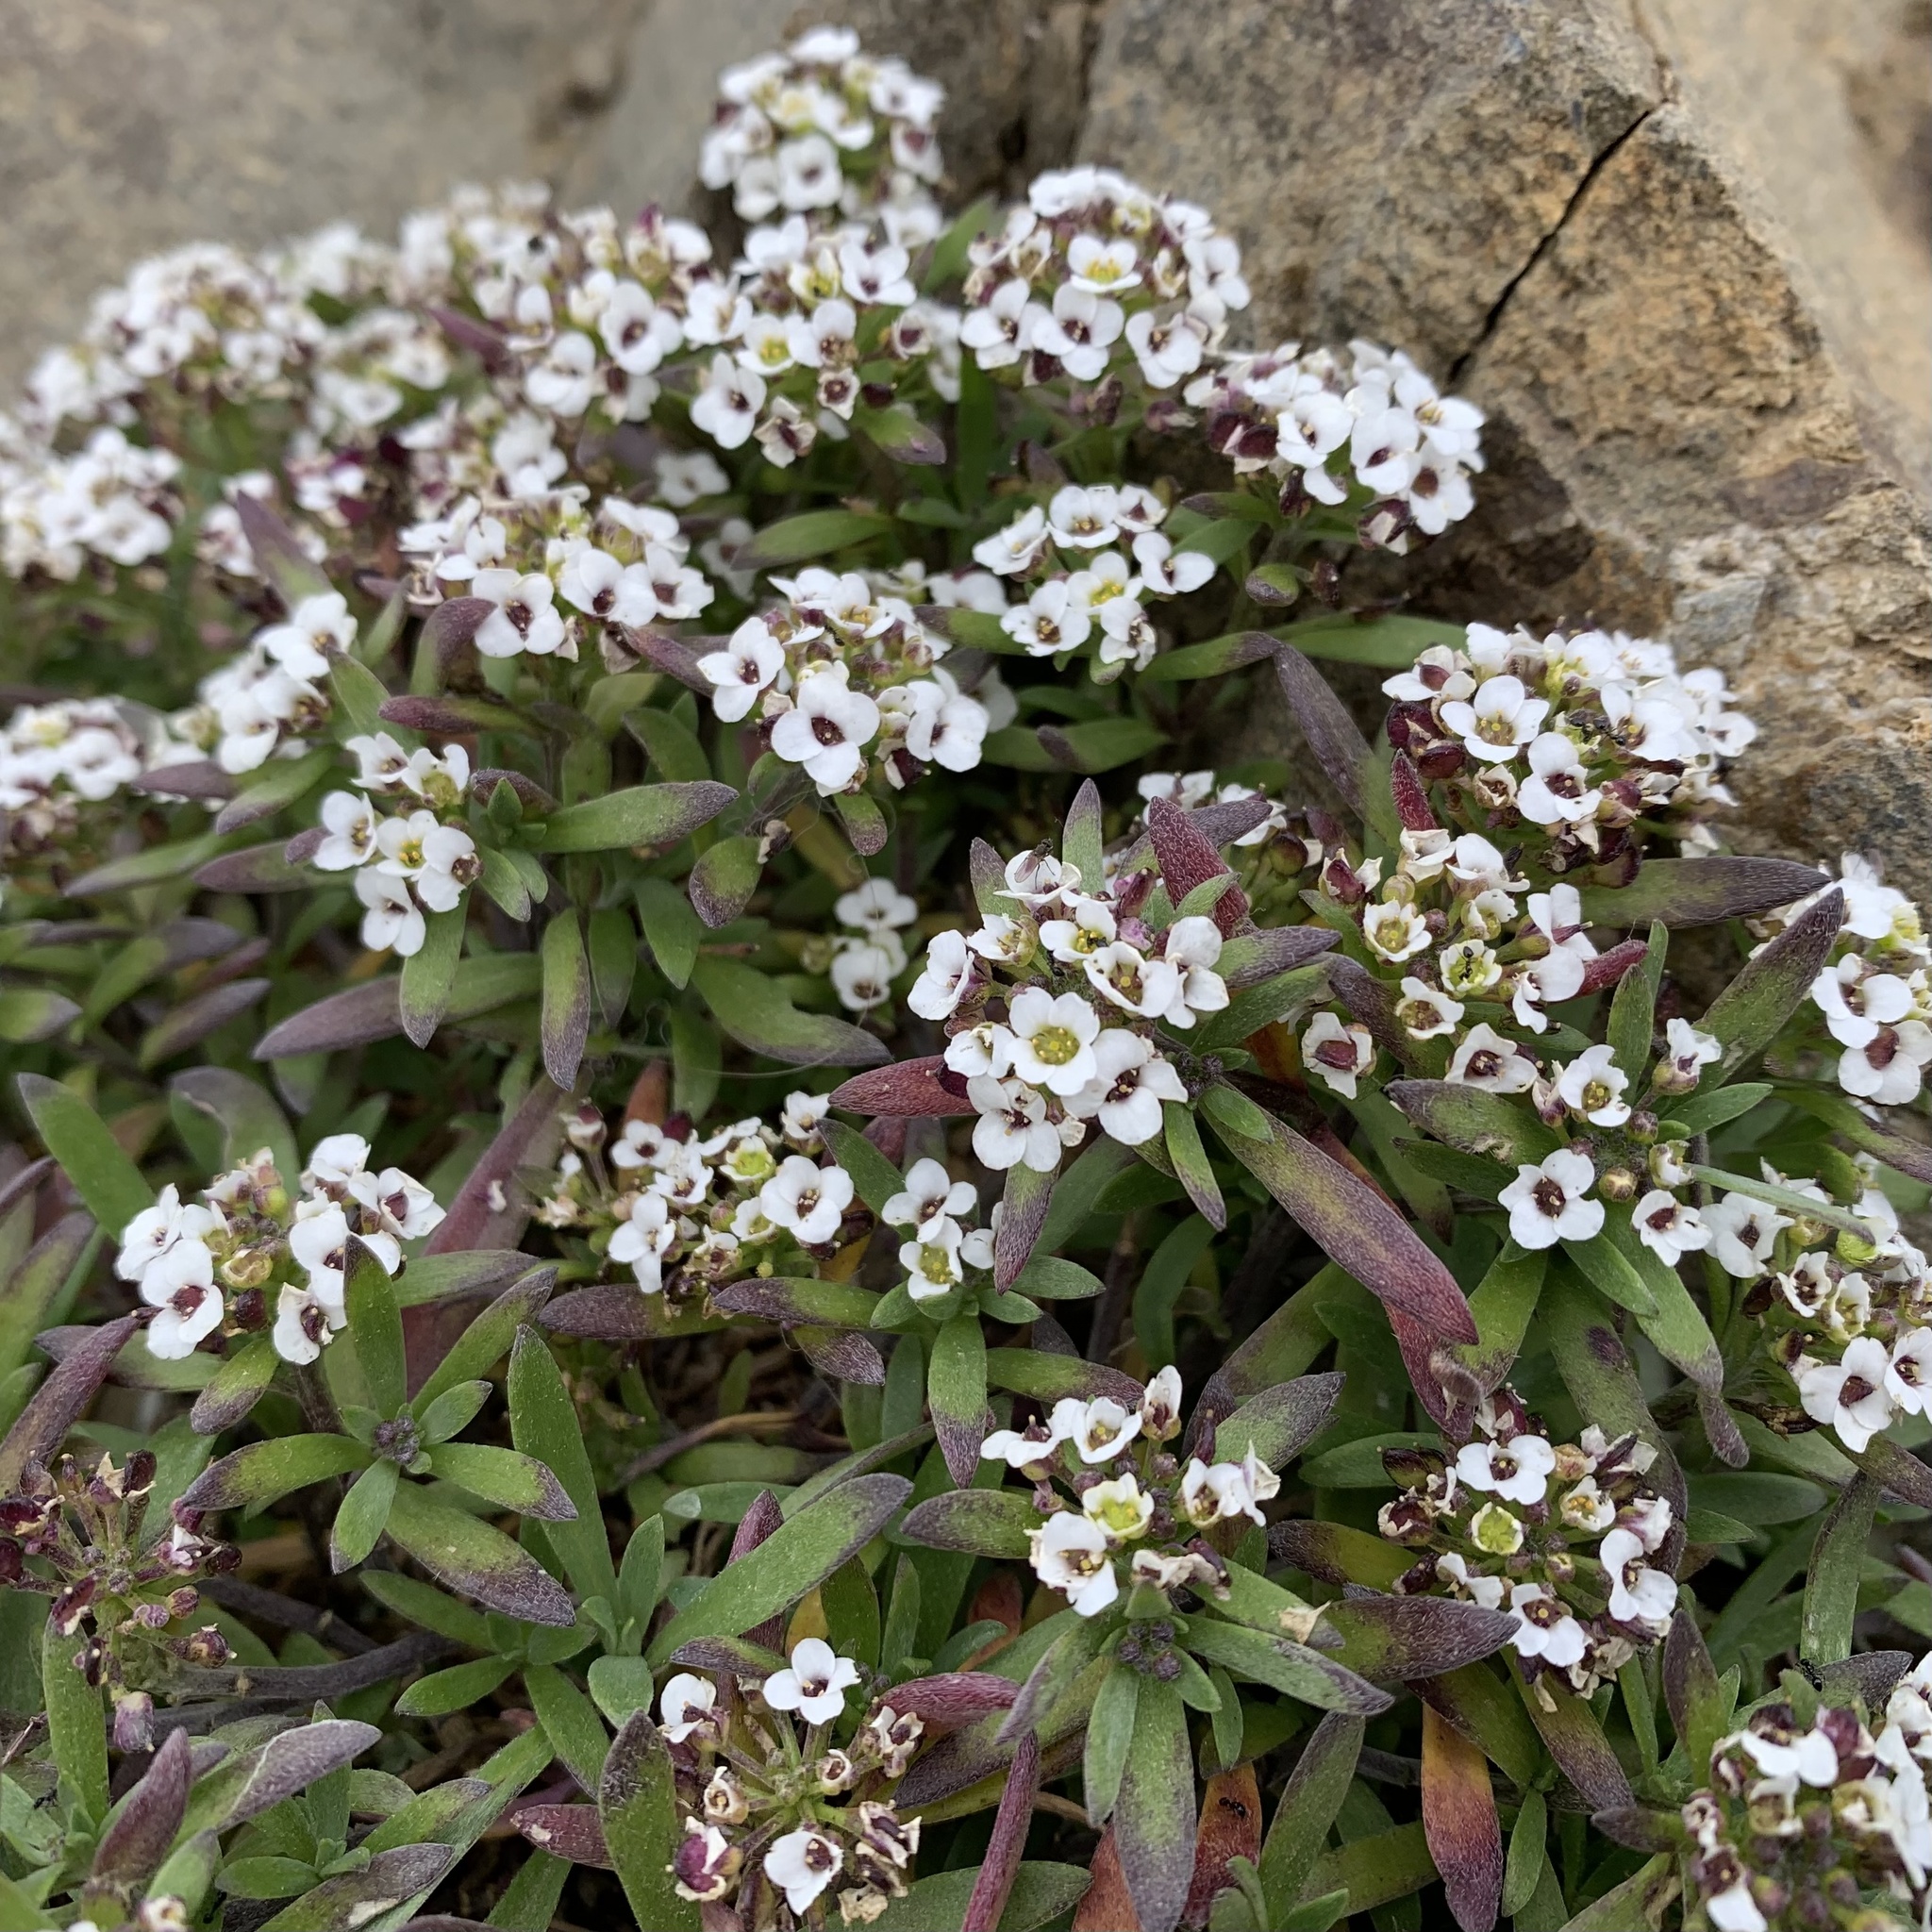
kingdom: Plantae
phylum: Tracheophyta
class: Magnoliopsida
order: Brassicales
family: Brassicaceae
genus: Lobularia
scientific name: Lobularia maritima
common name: Sweet alison
